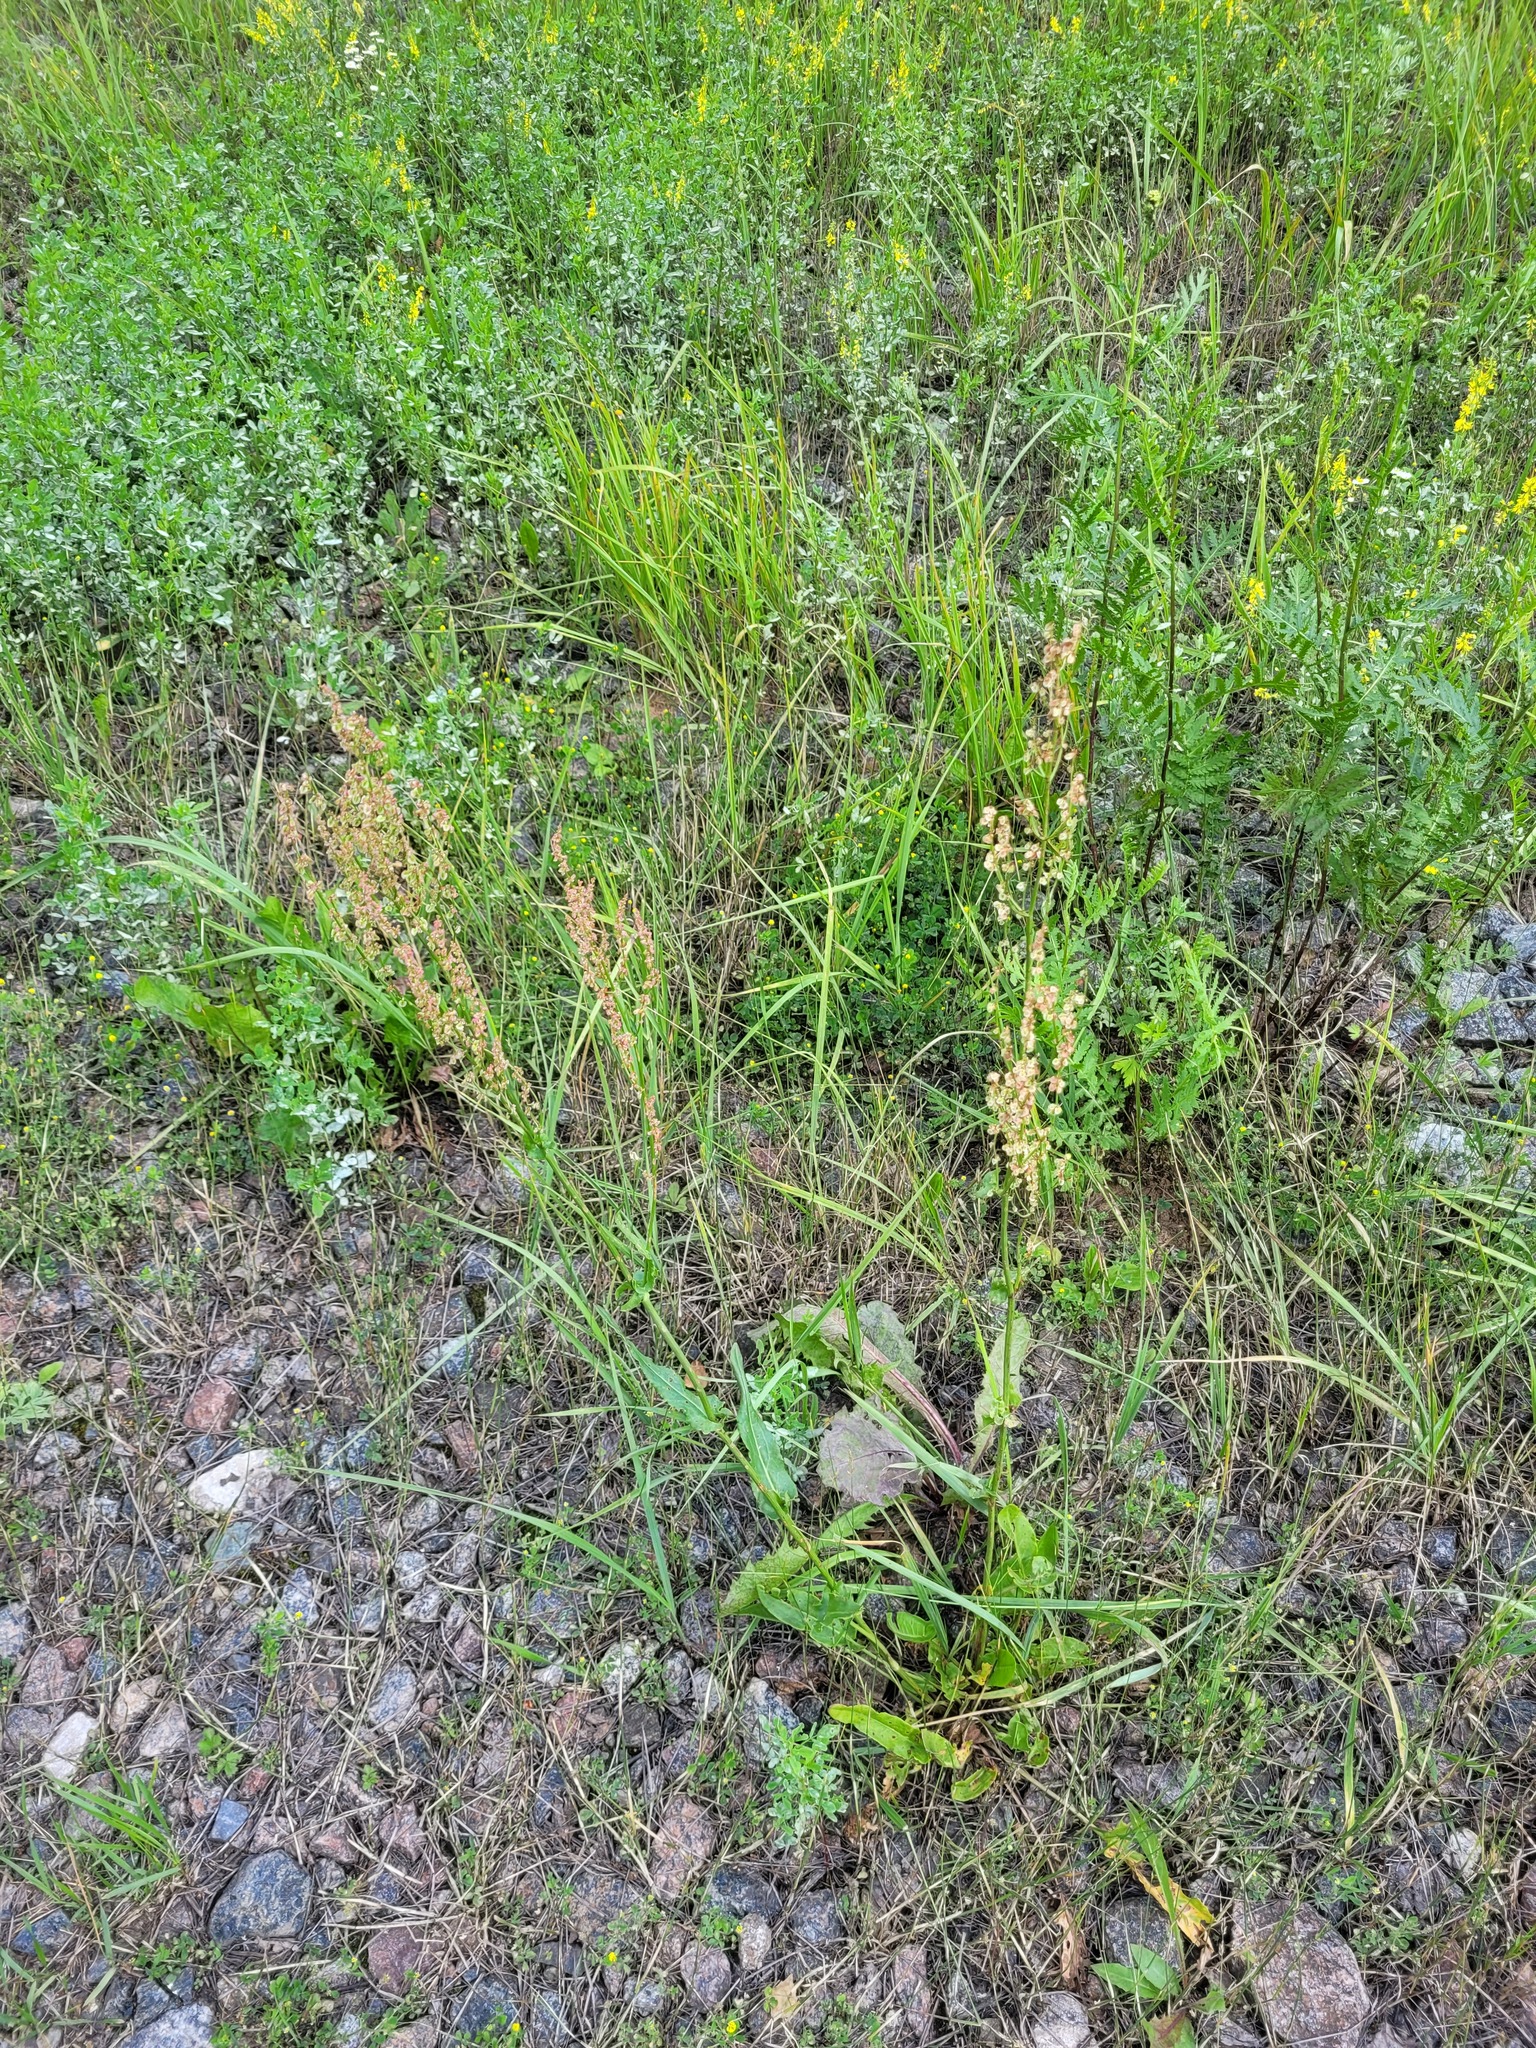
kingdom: Plantae
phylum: Tracheophyta
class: Magnoliopsida
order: Caryophyllales
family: Polygonaceae
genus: Rumex
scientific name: Rumex acetosa
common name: Garden sorrel
